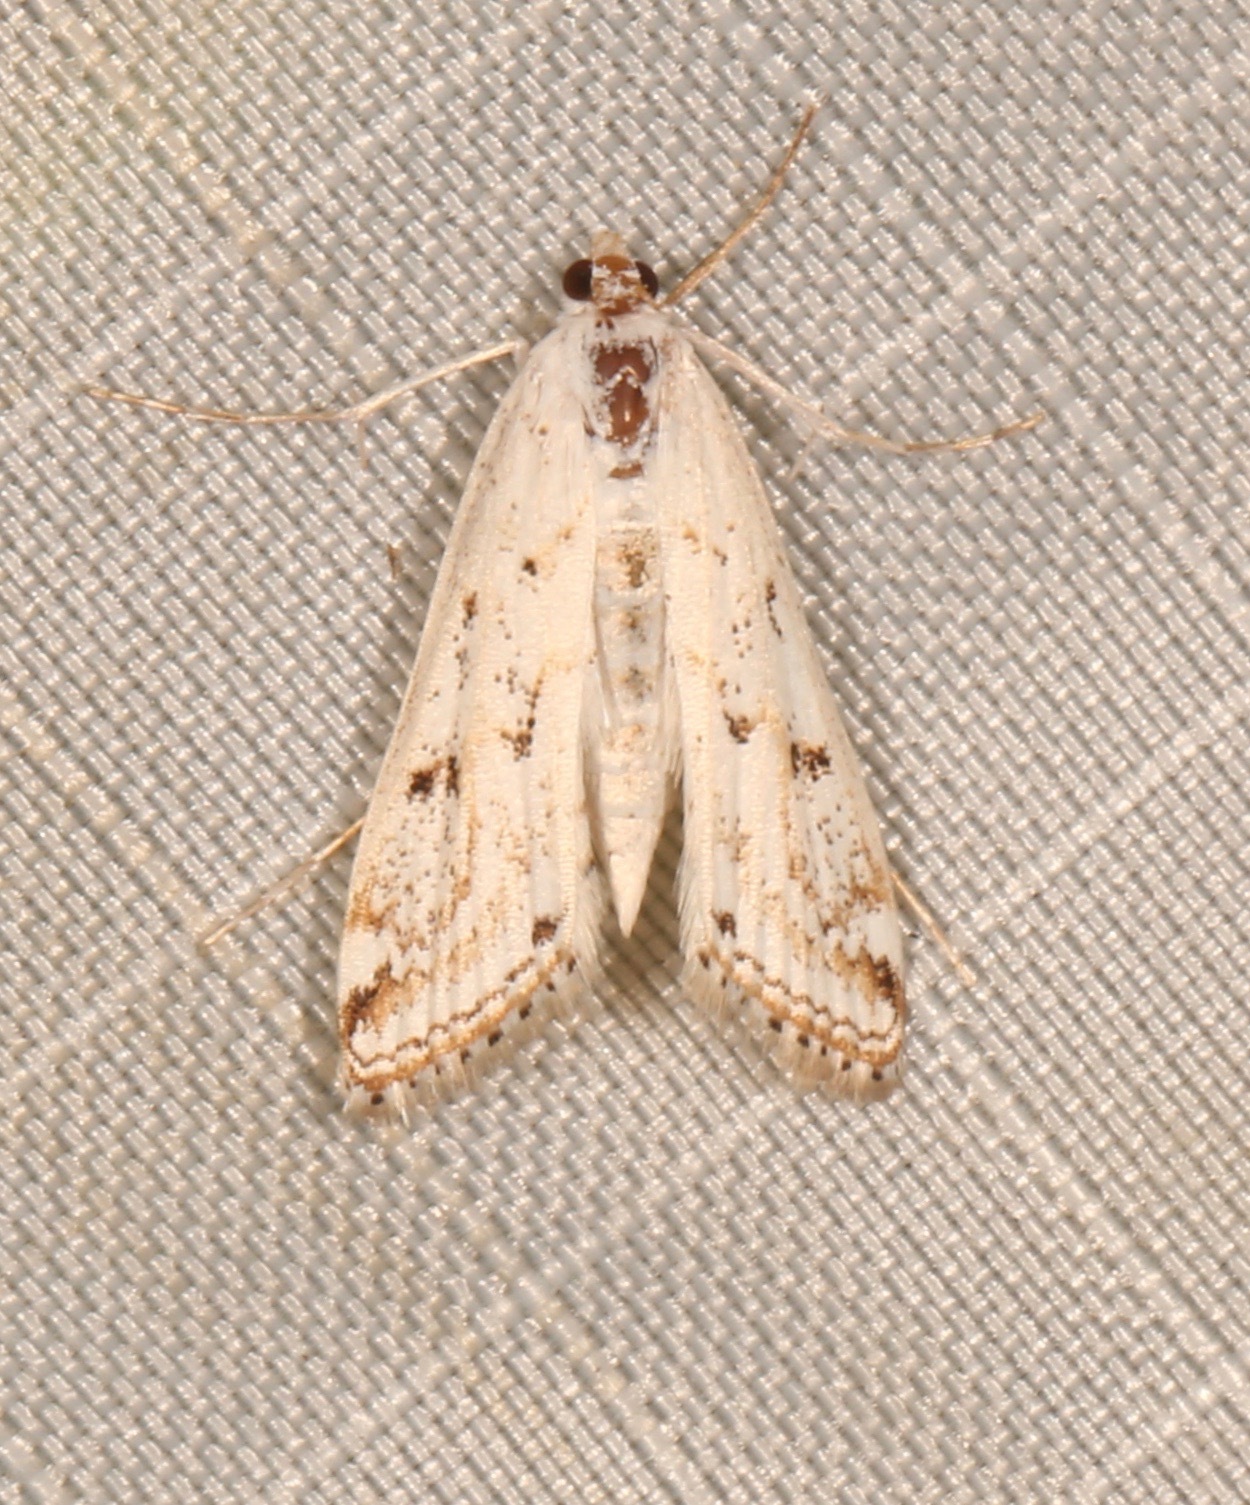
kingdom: Animalia
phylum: Arthropoda
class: Insecta
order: Lepidoptera
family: Crambidae
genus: Parapoynx
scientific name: Parapoynx allionealis
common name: Bladderwort casemaker
